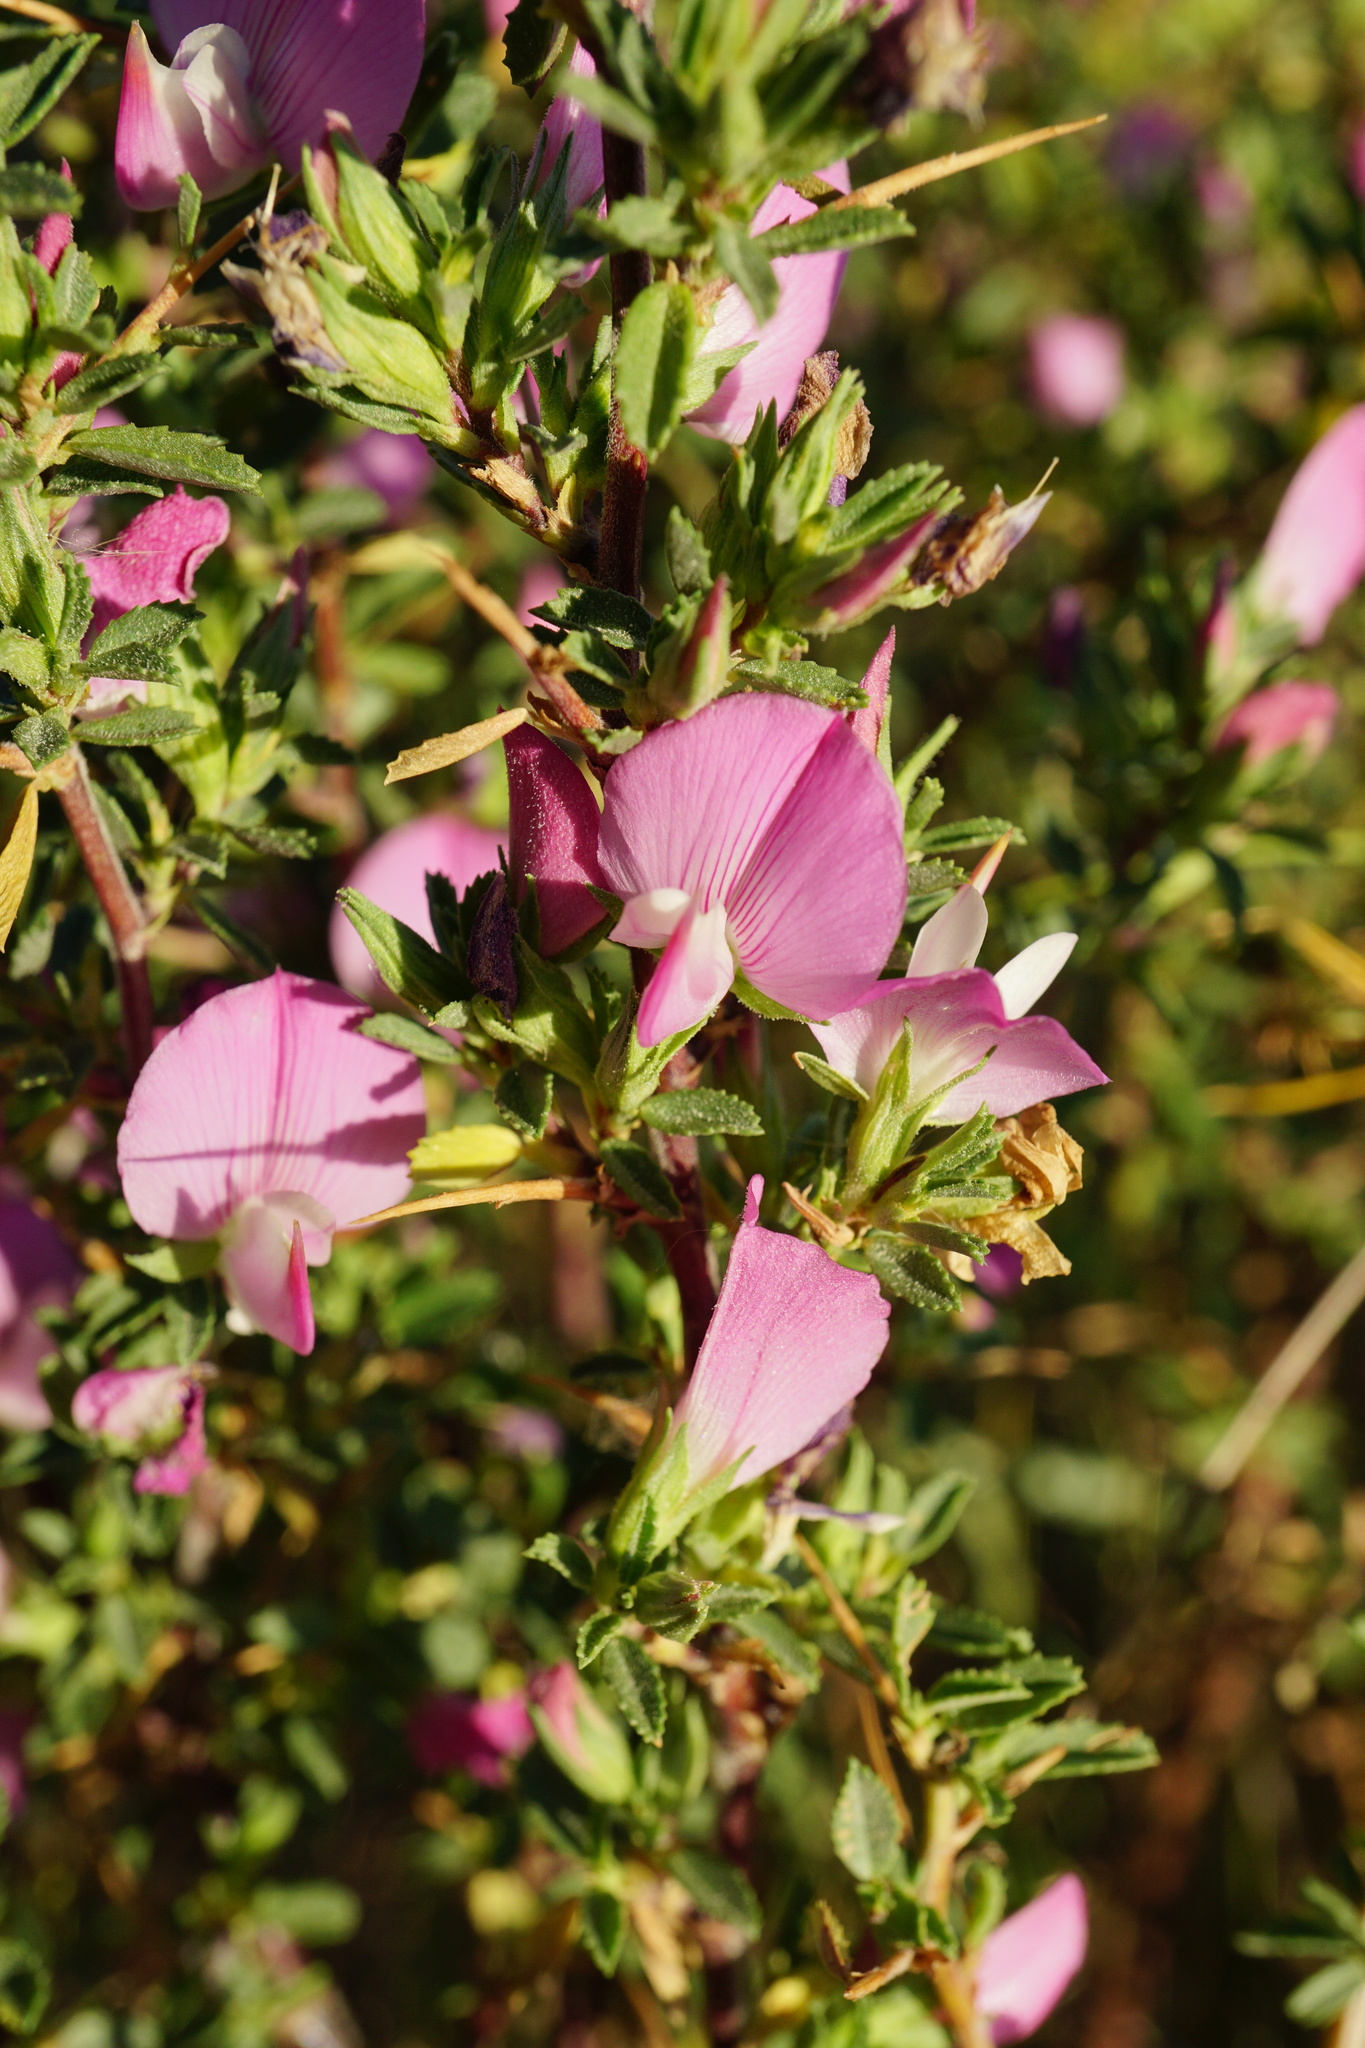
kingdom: Plantae
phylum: Tracheophyta
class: Magnoliopsida
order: Fabales
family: Fabaceae
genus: Ononis
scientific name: Ononis spinosa
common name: Spiny restharrow
